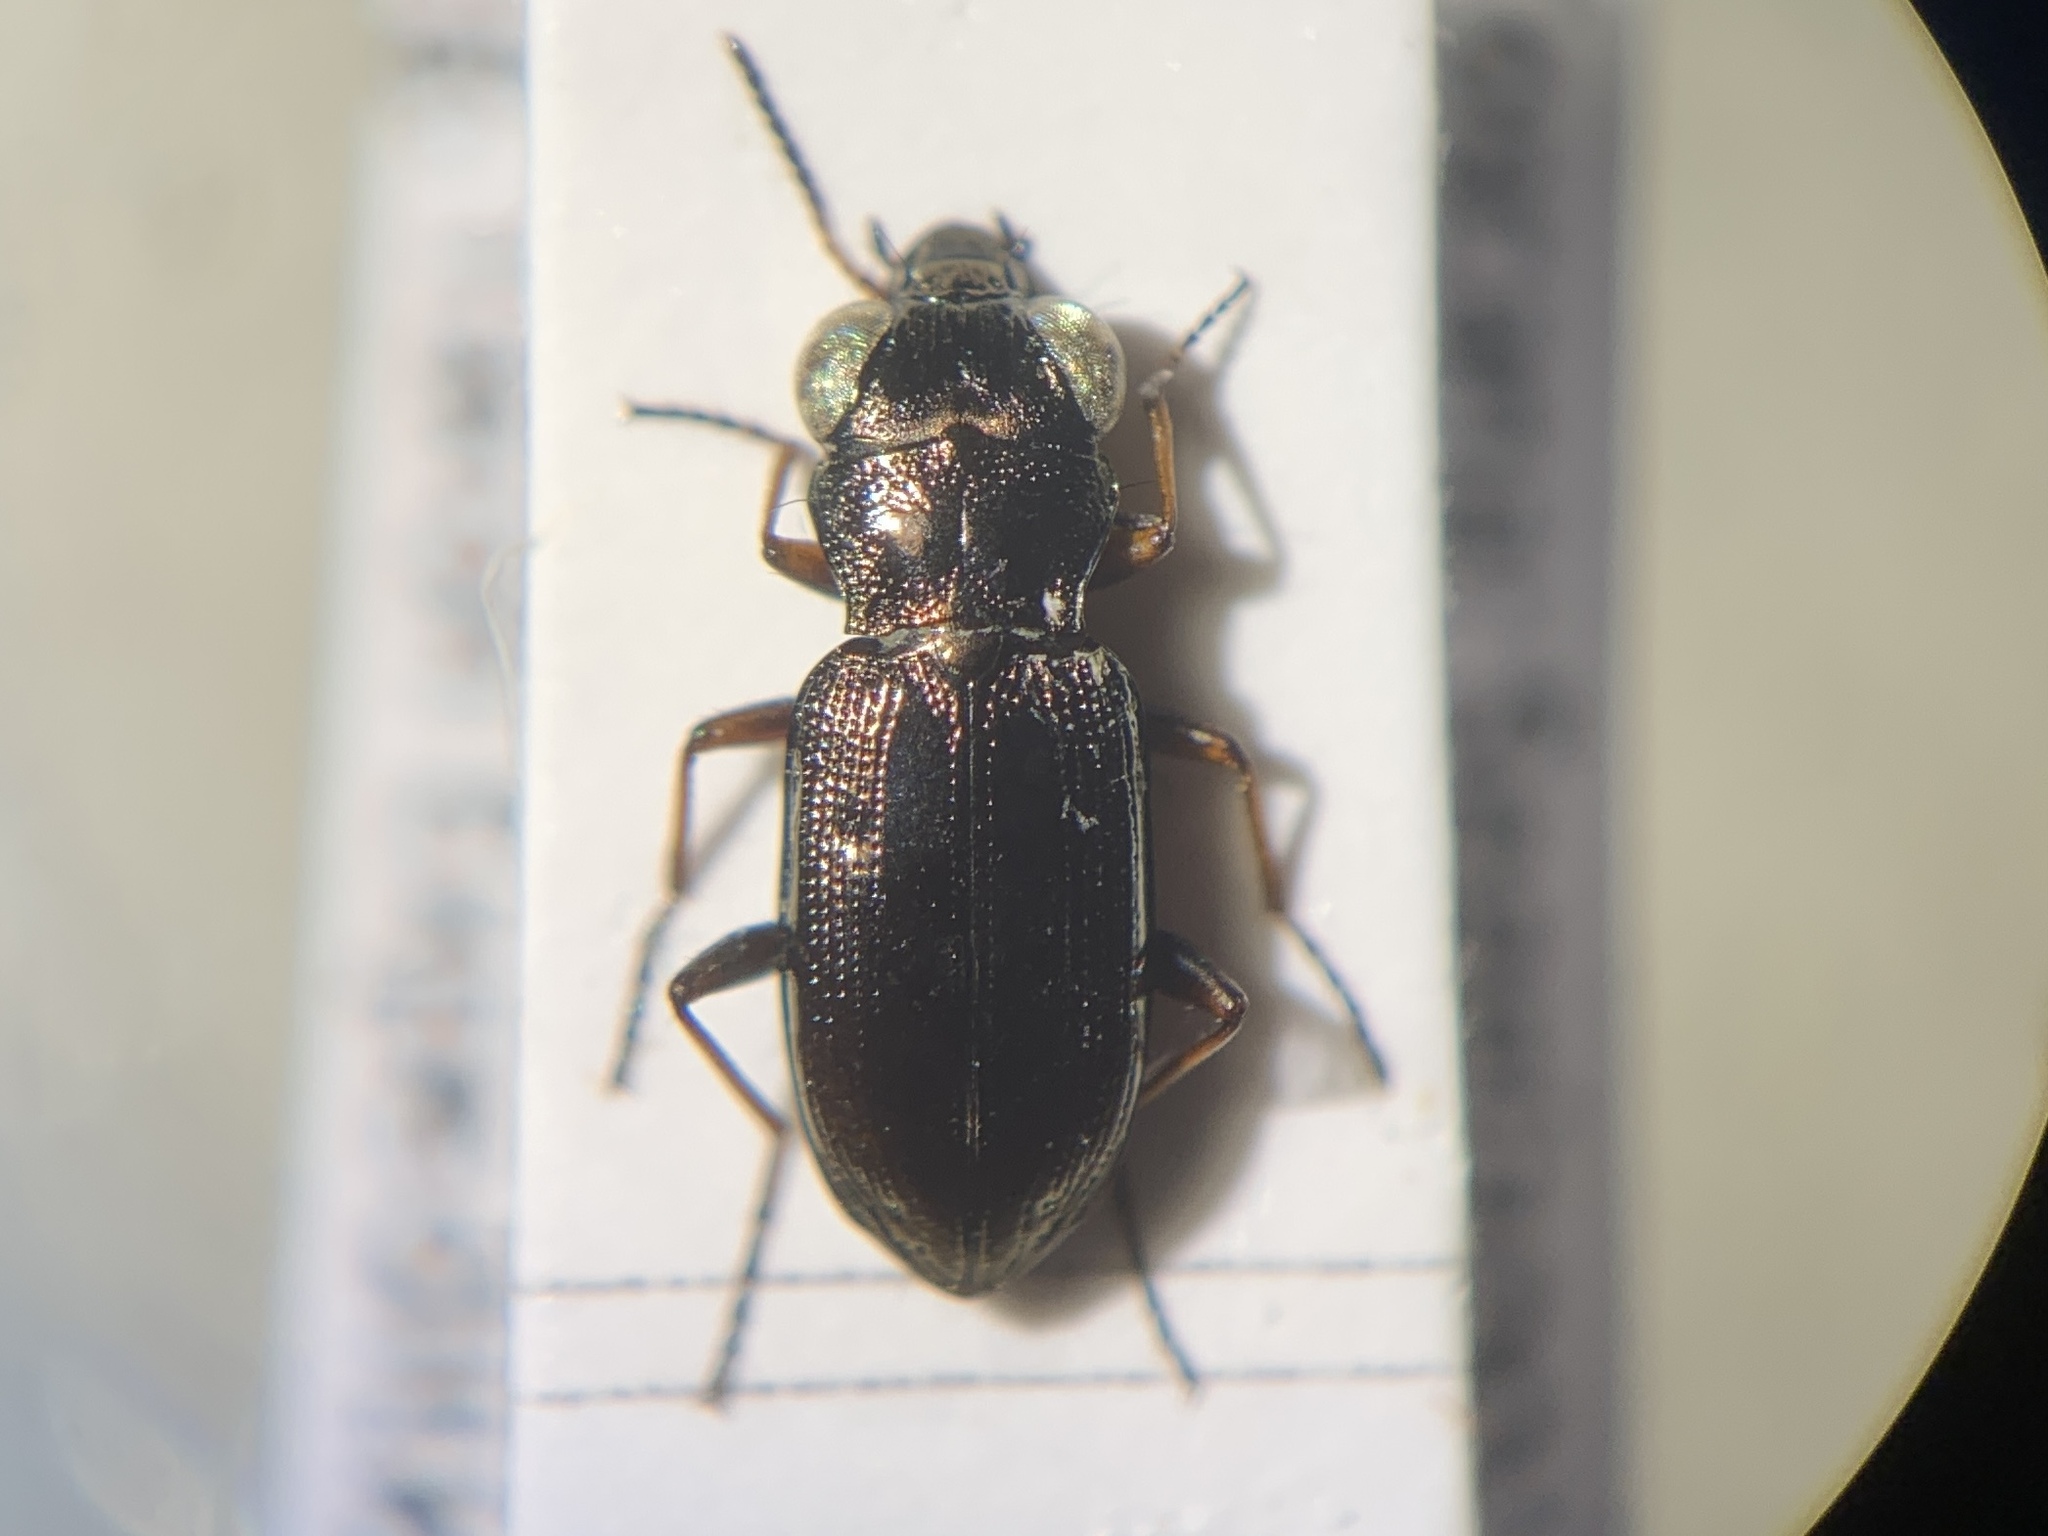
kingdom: Animalia
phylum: Arthropoda
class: Insecta
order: Coleoptera
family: Carabidae
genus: Notiophilus
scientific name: Notiophilus rufipes
